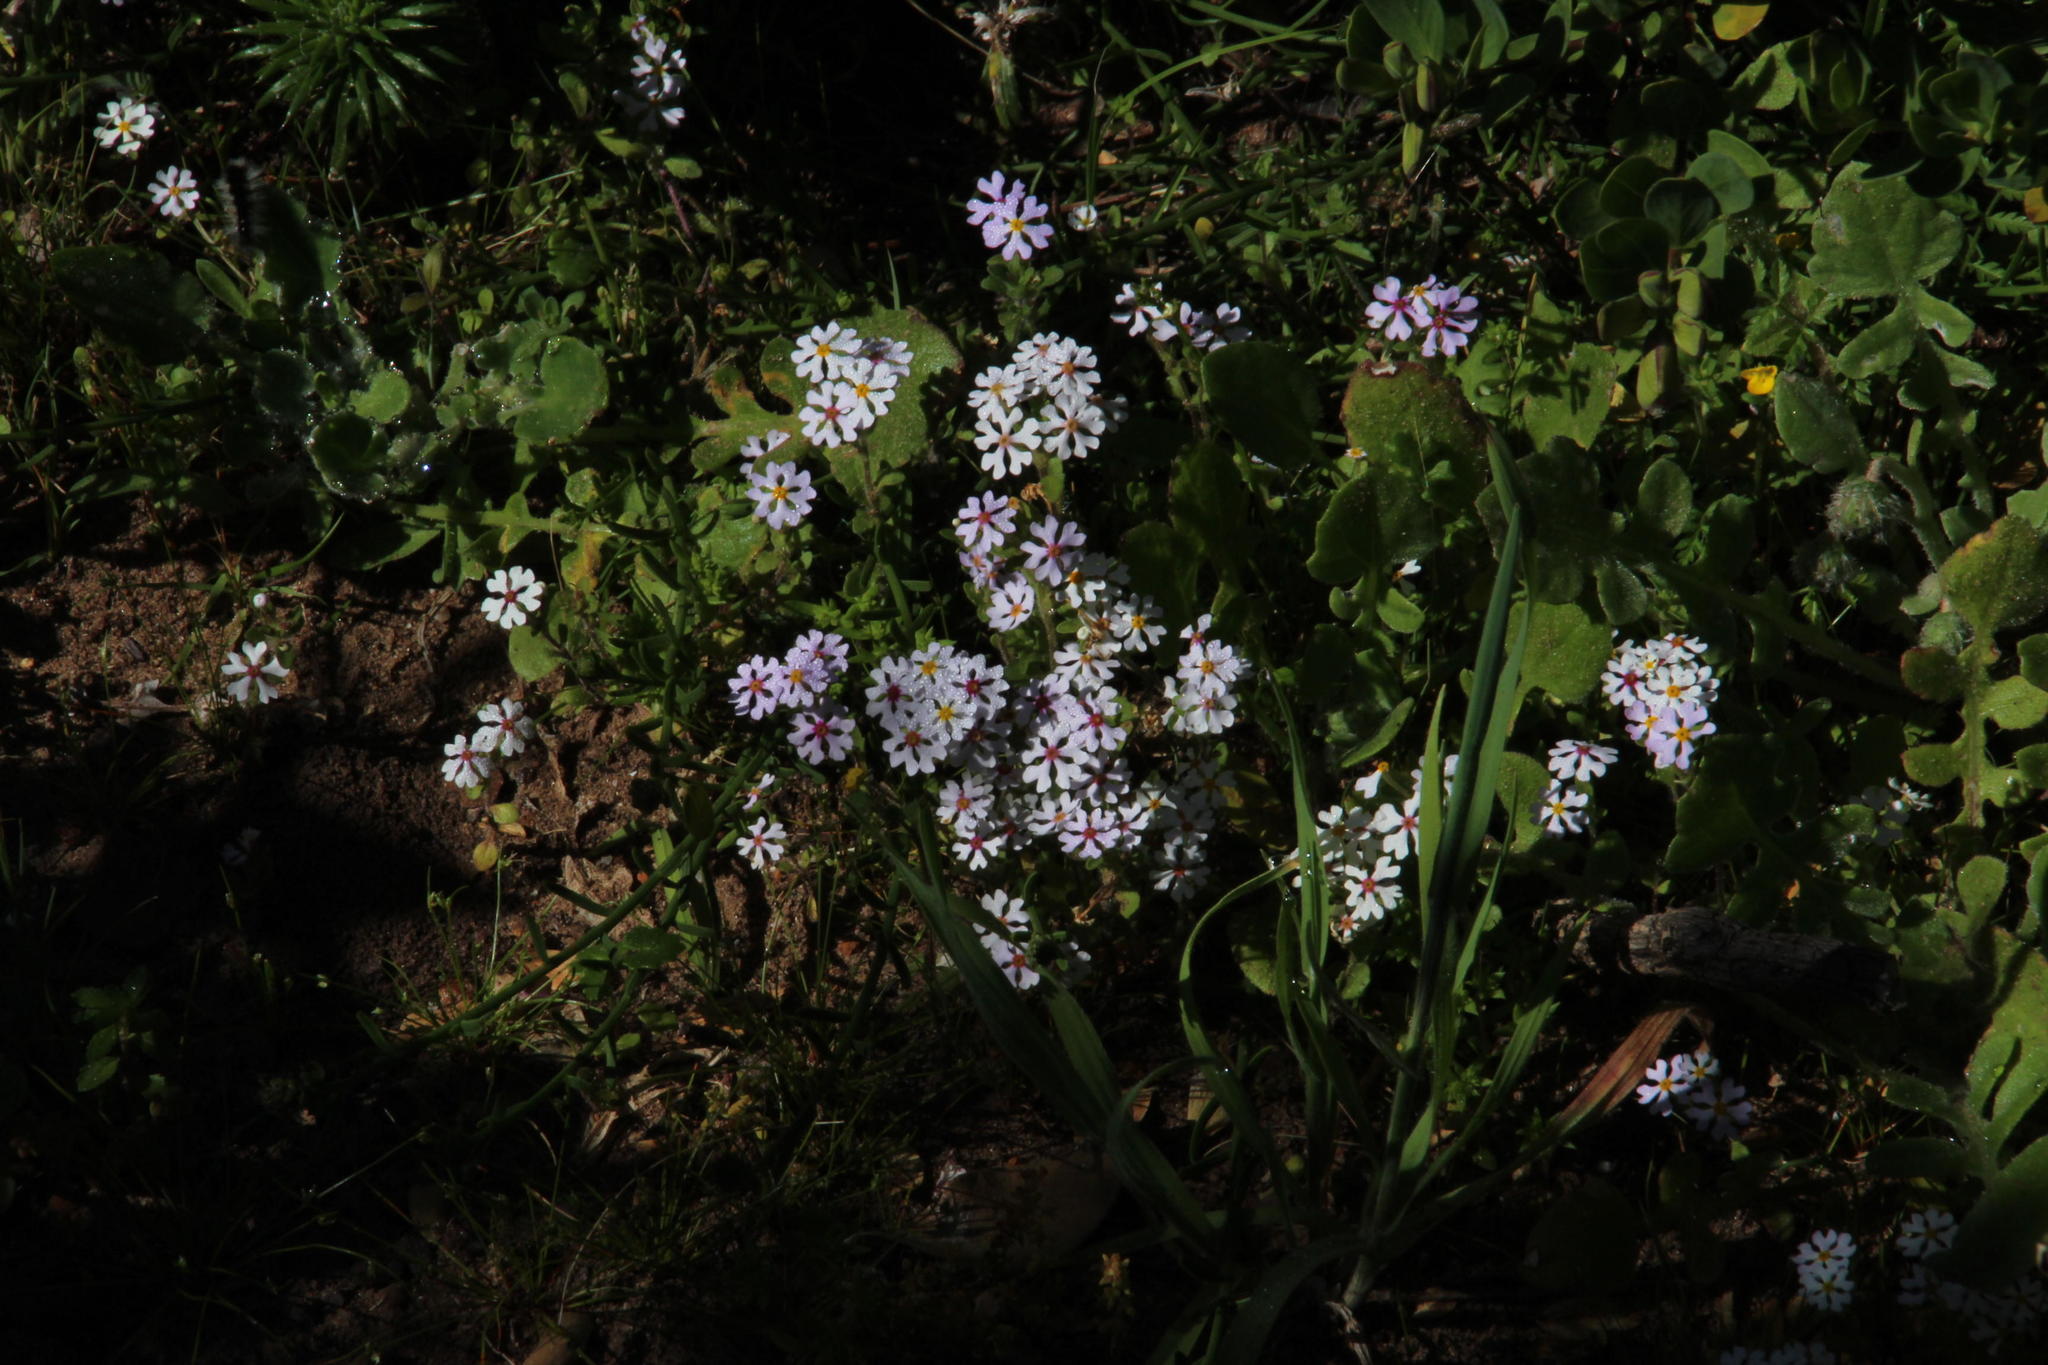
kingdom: Plantae
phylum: Tracheophyta
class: Magnoliopsida
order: Lamiales
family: Scrophulariaceae
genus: Zaluzianskya
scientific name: Zaluzianskya villosa
